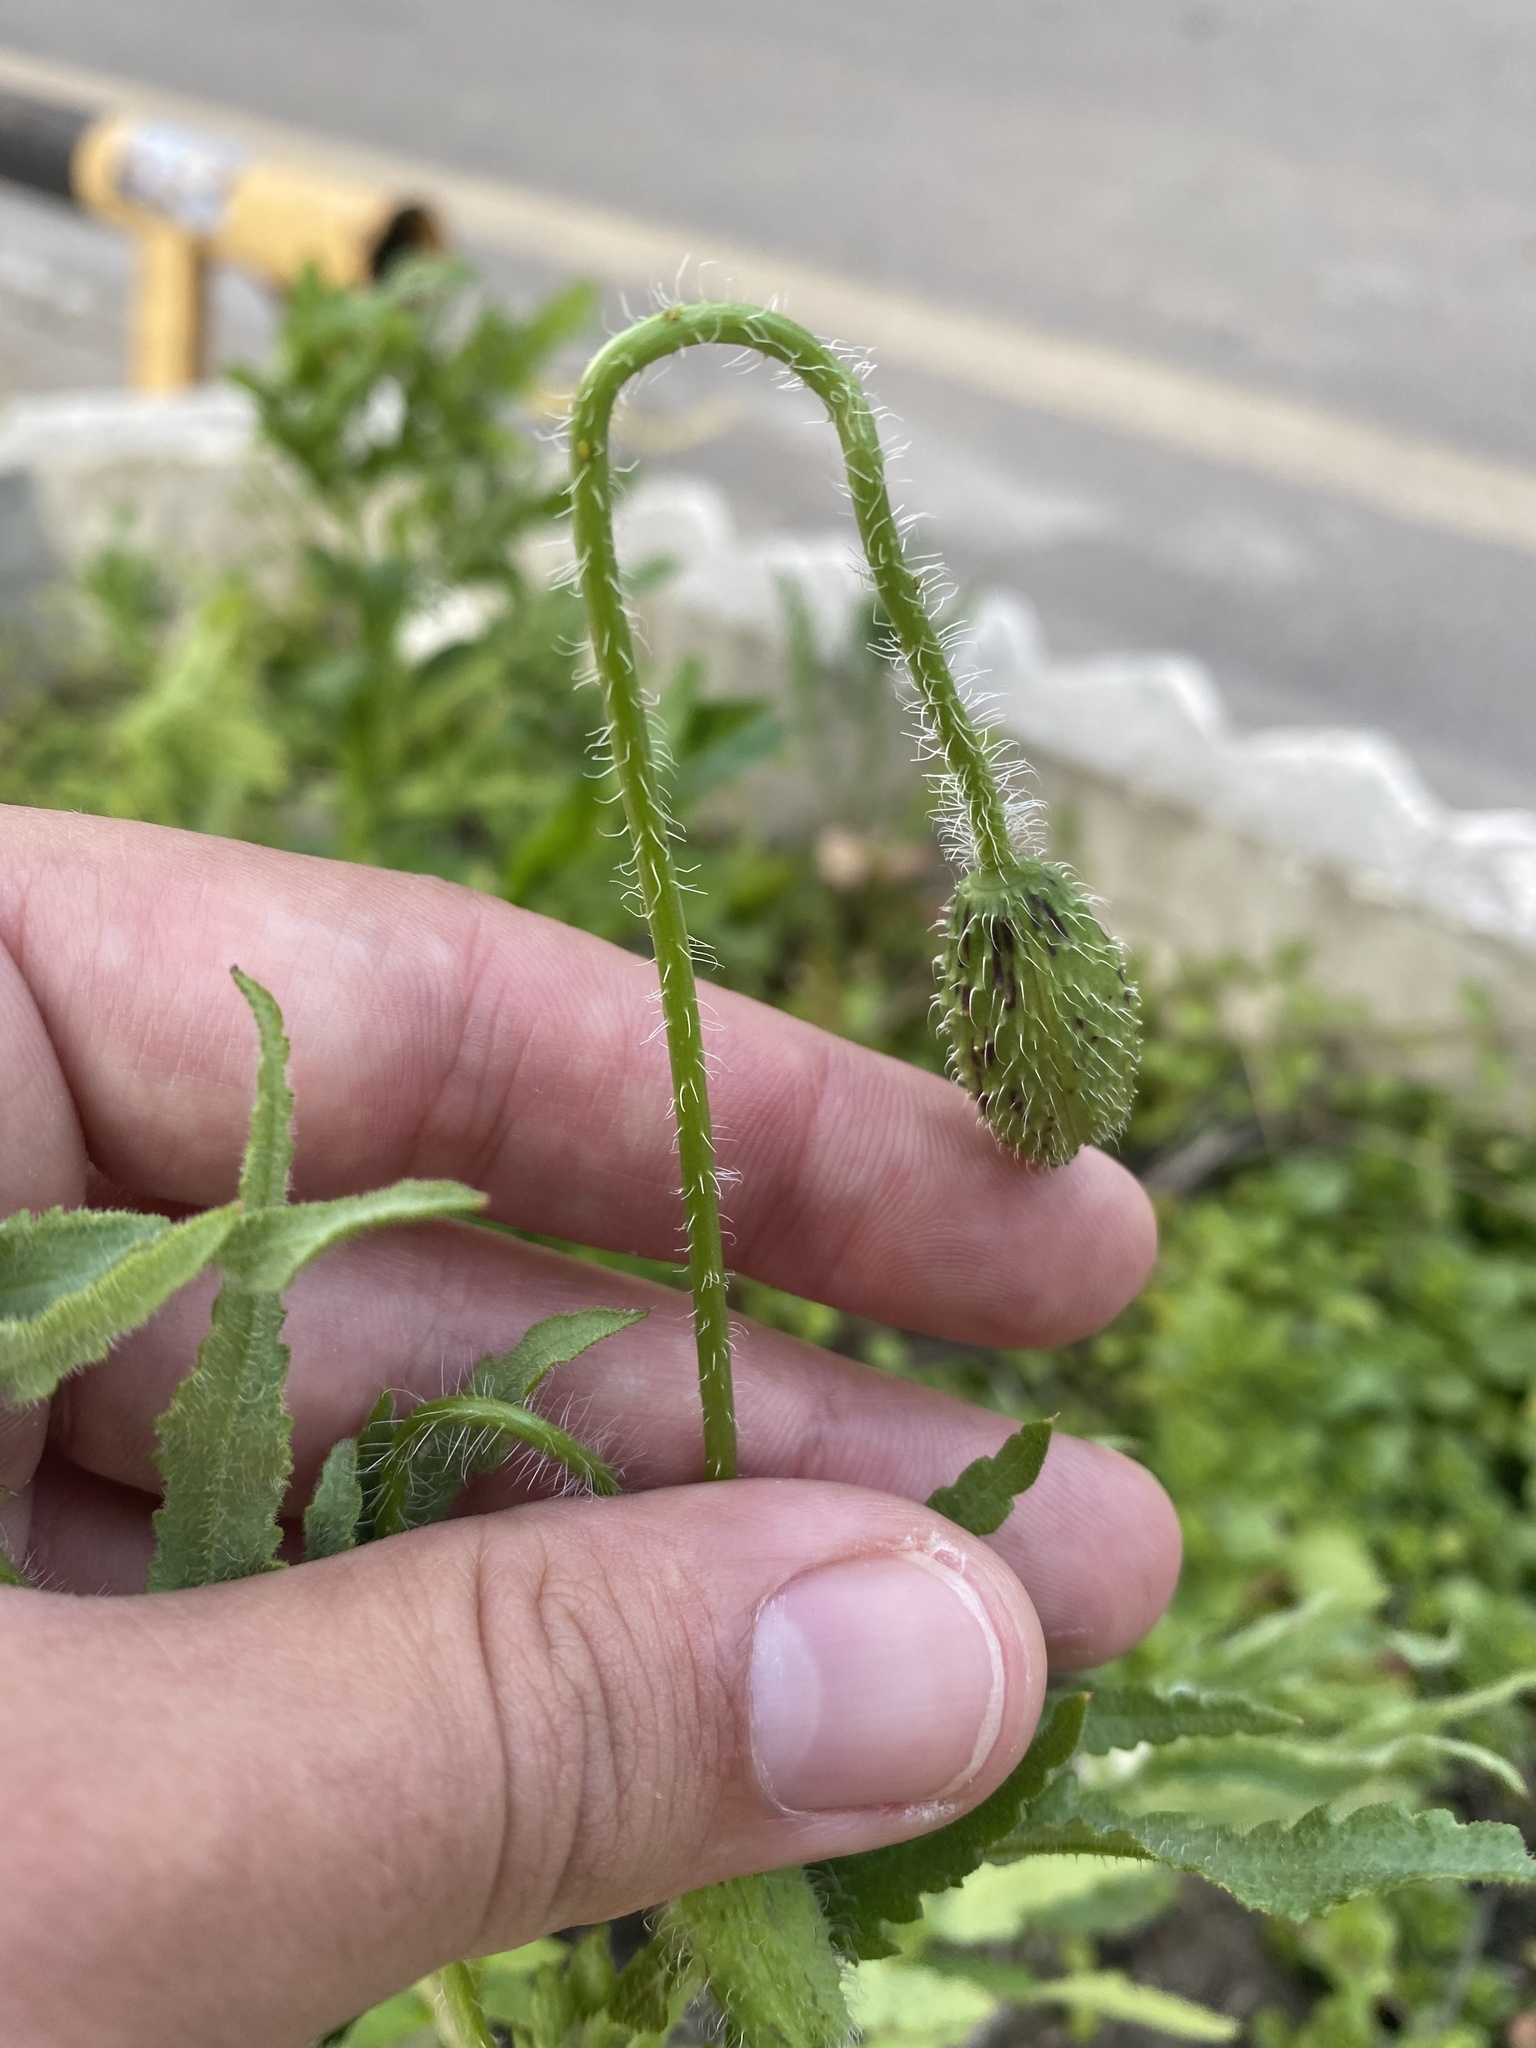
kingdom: Plantae
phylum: Tracheophyta
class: Magnoliopsida
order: Ranunculales
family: Papaveraceae
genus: Papaver
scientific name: Papaver rhoeas
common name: Corn poppy
